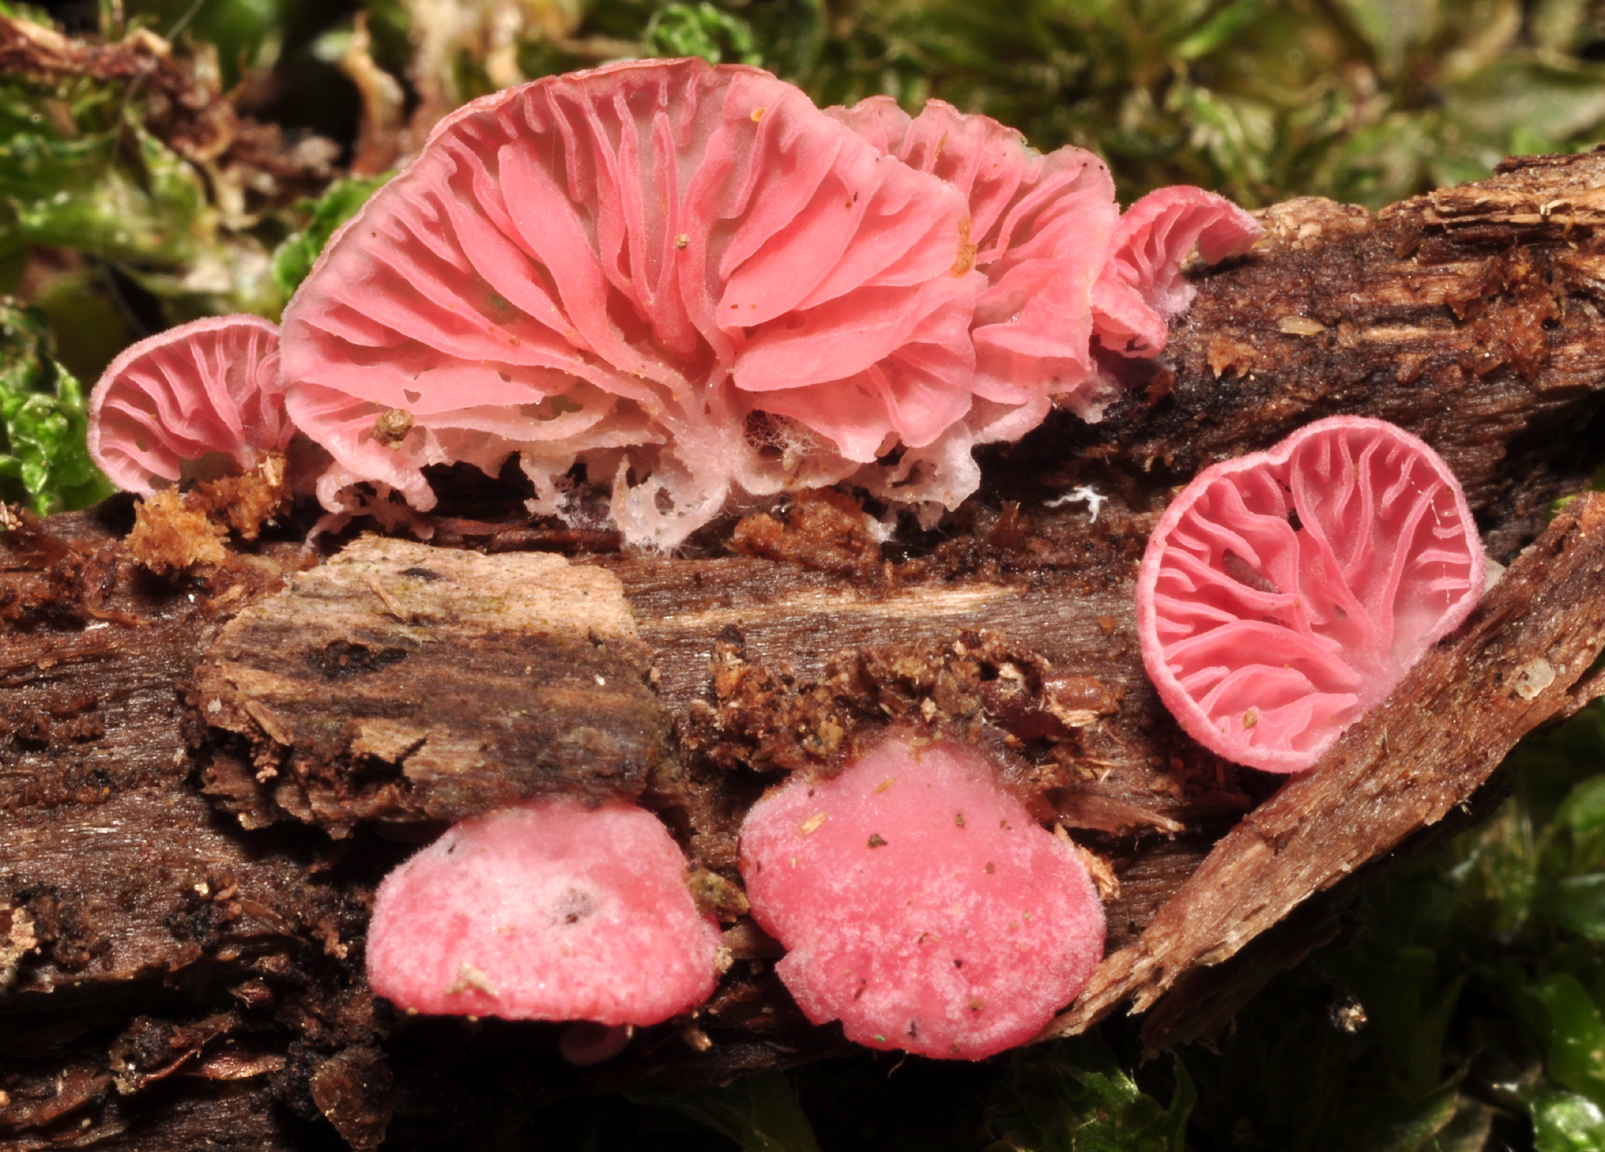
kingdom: Fungi
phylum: Basidiomycota
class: Agaricomycetes
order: Agaricales
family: Cyphellaceae
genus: Cheimonophyllum
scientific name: Cheimonophyllum roseum
